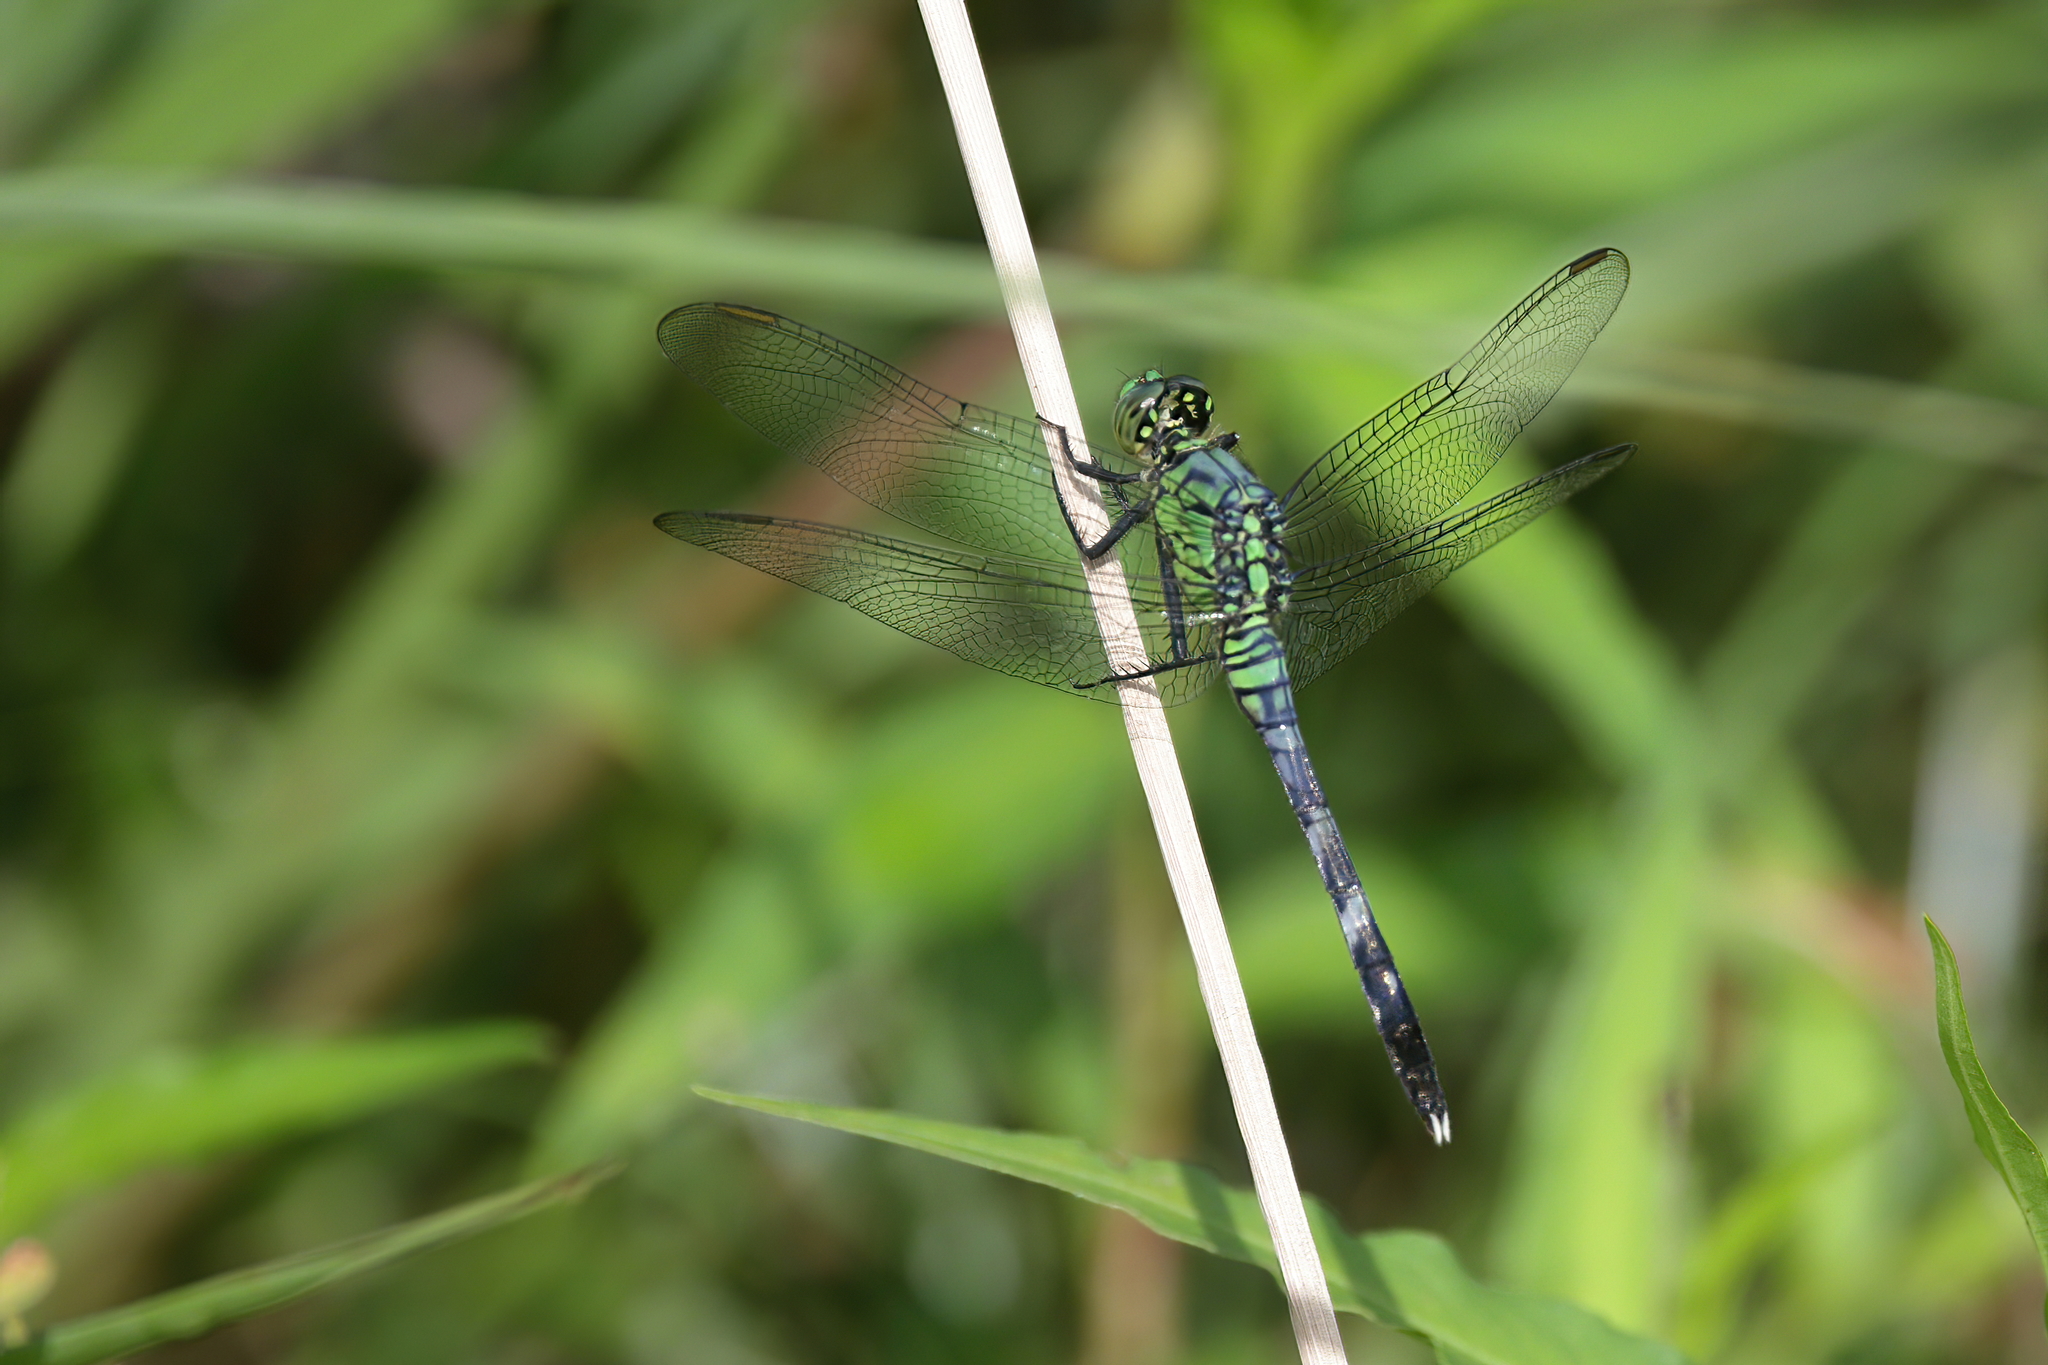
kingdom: Animalia
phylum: Arthropoda
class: Insecta
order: Odonata
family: Libellulidae
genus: Erythemis
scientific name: Erythemis simplicicollis
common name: Eastern pondhawk
